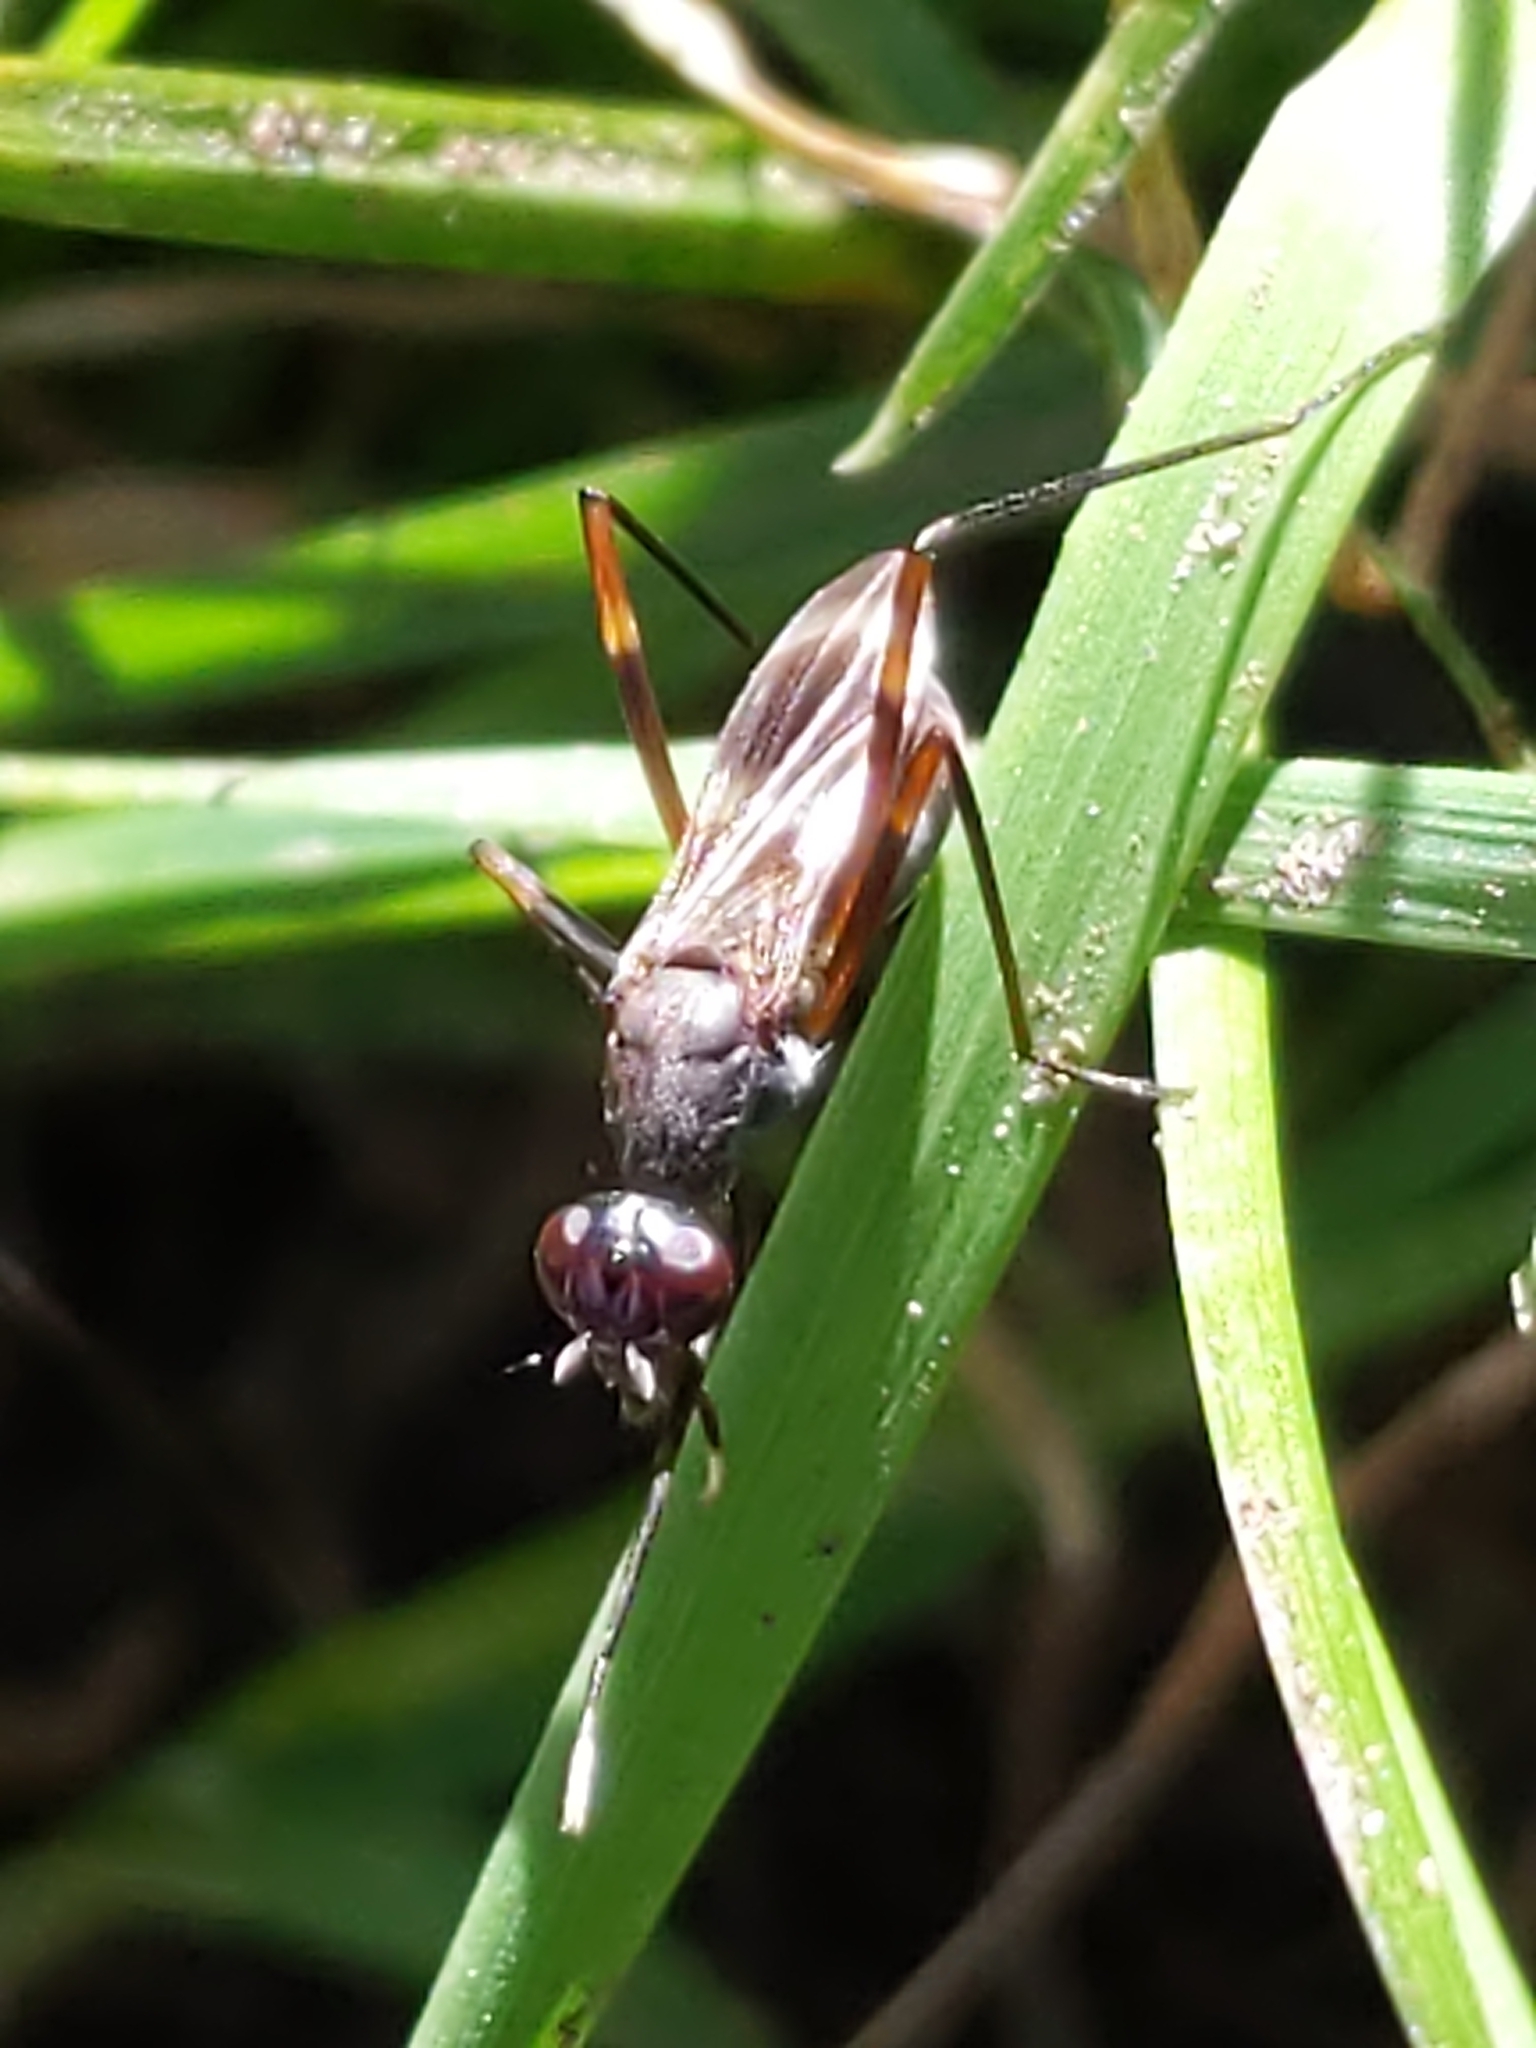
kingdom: Animalia
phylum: Arthropoda
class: Insecta
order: Diptera
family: Micropezidae
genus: Taeniaptera
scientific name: Taeniaptera trivittata
